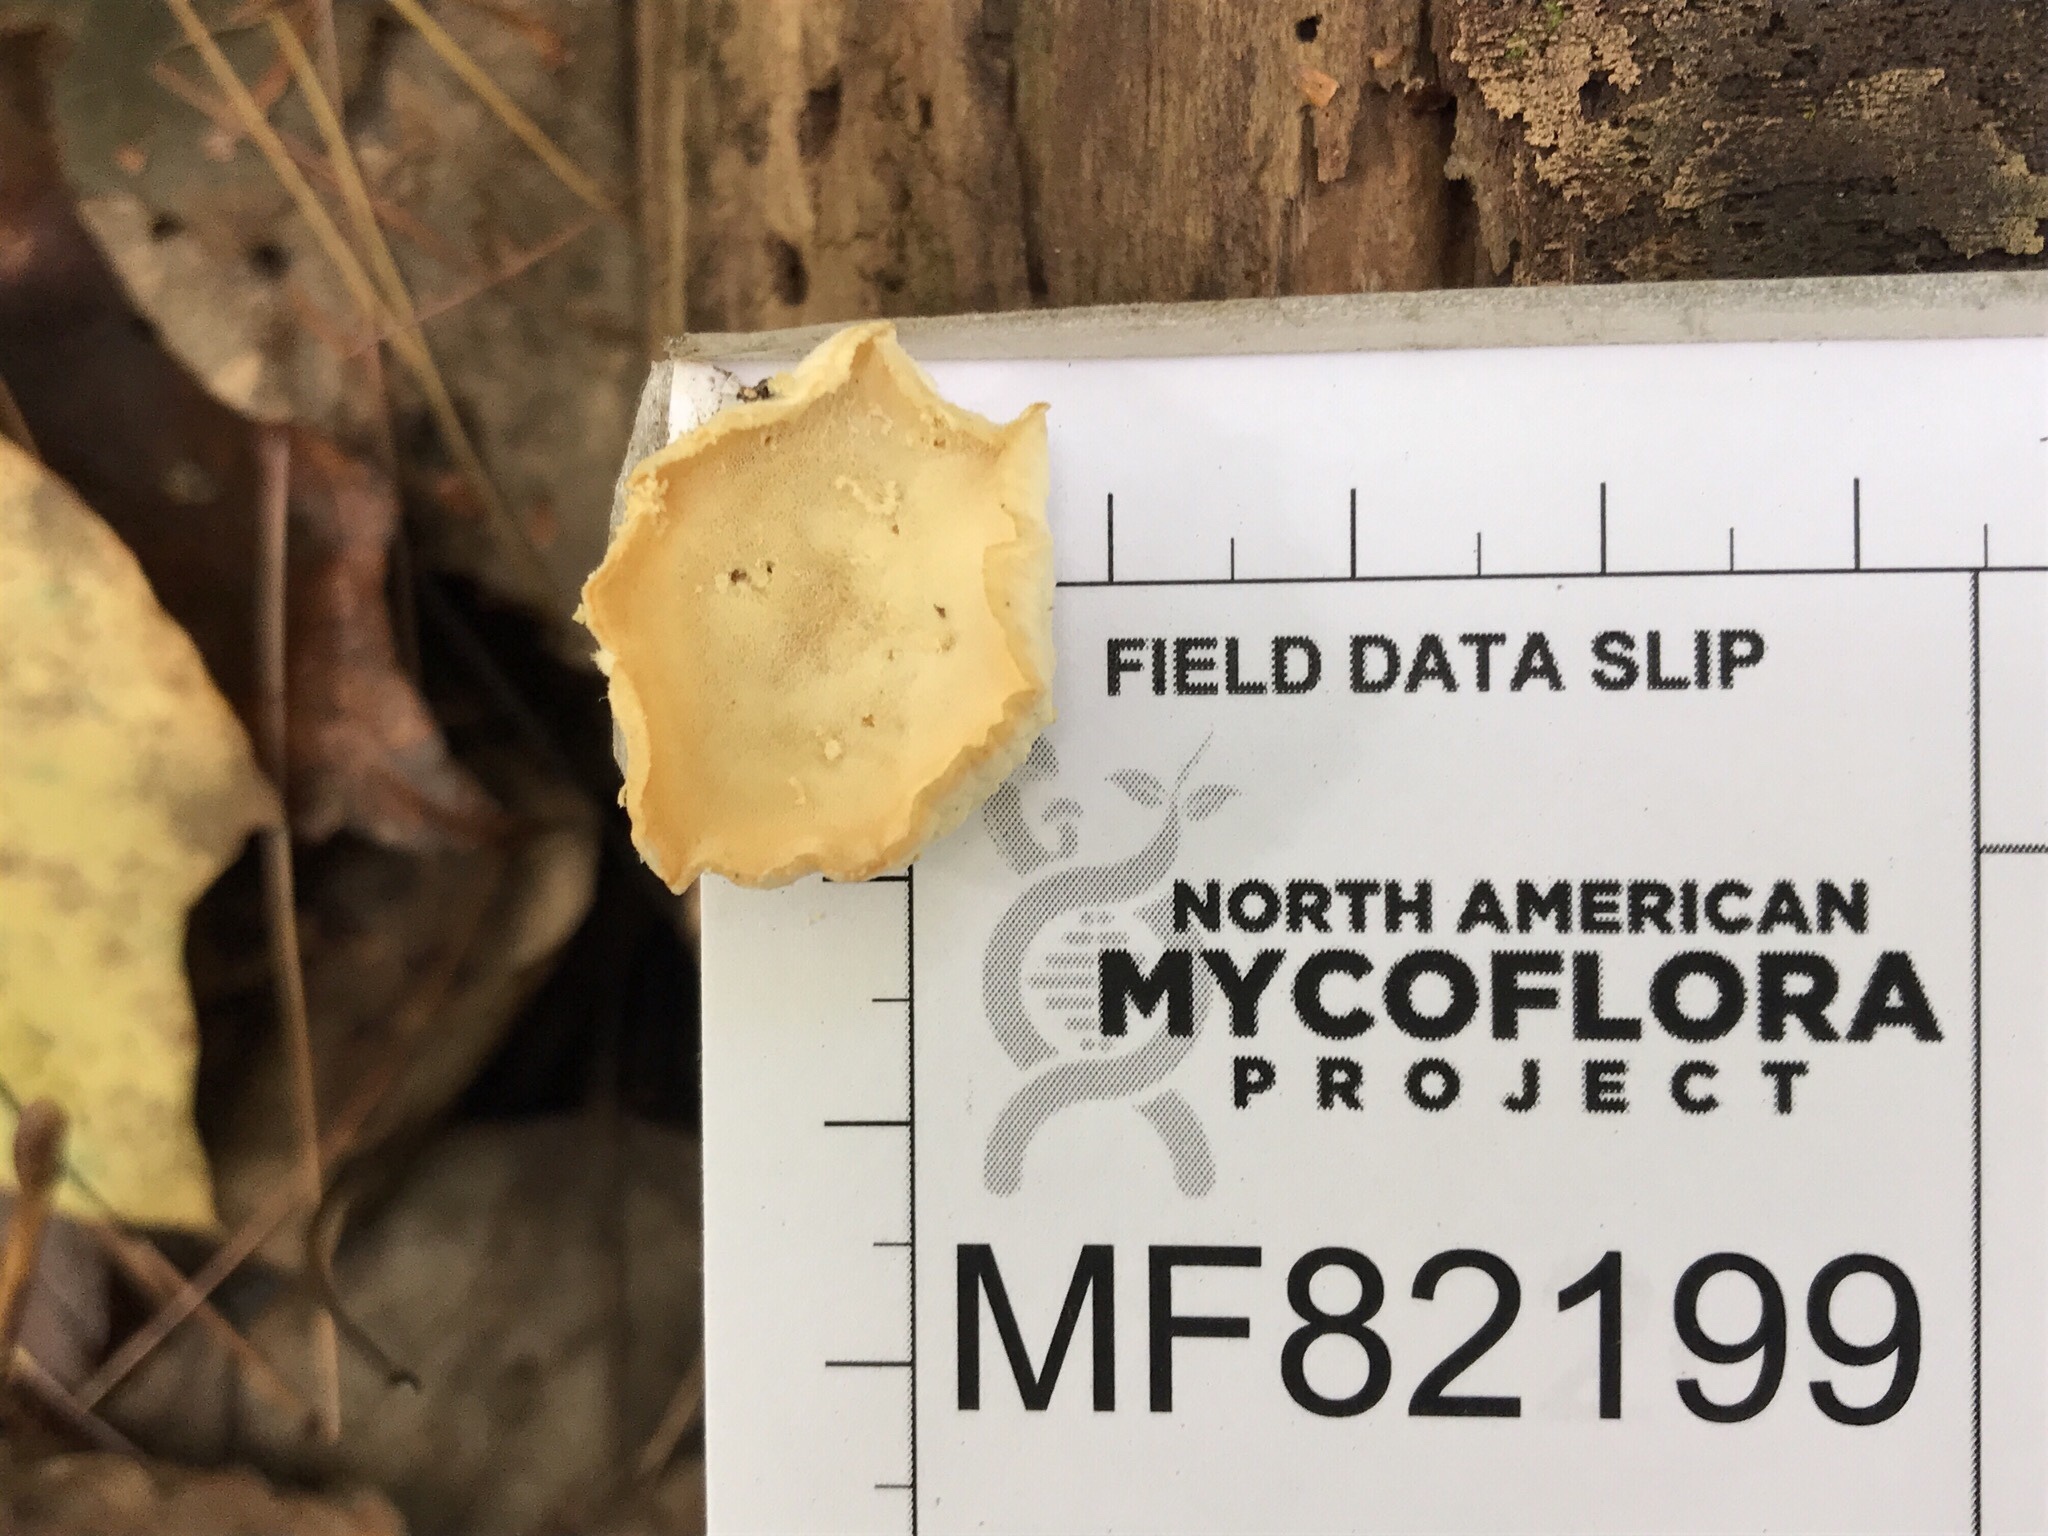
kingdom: Fungi
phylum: Basidiomycota
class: Agaricomycetes
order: Polyporales
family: Incrustoporiaceae
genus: Tyromyces
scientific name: Tyromyces galactinus
